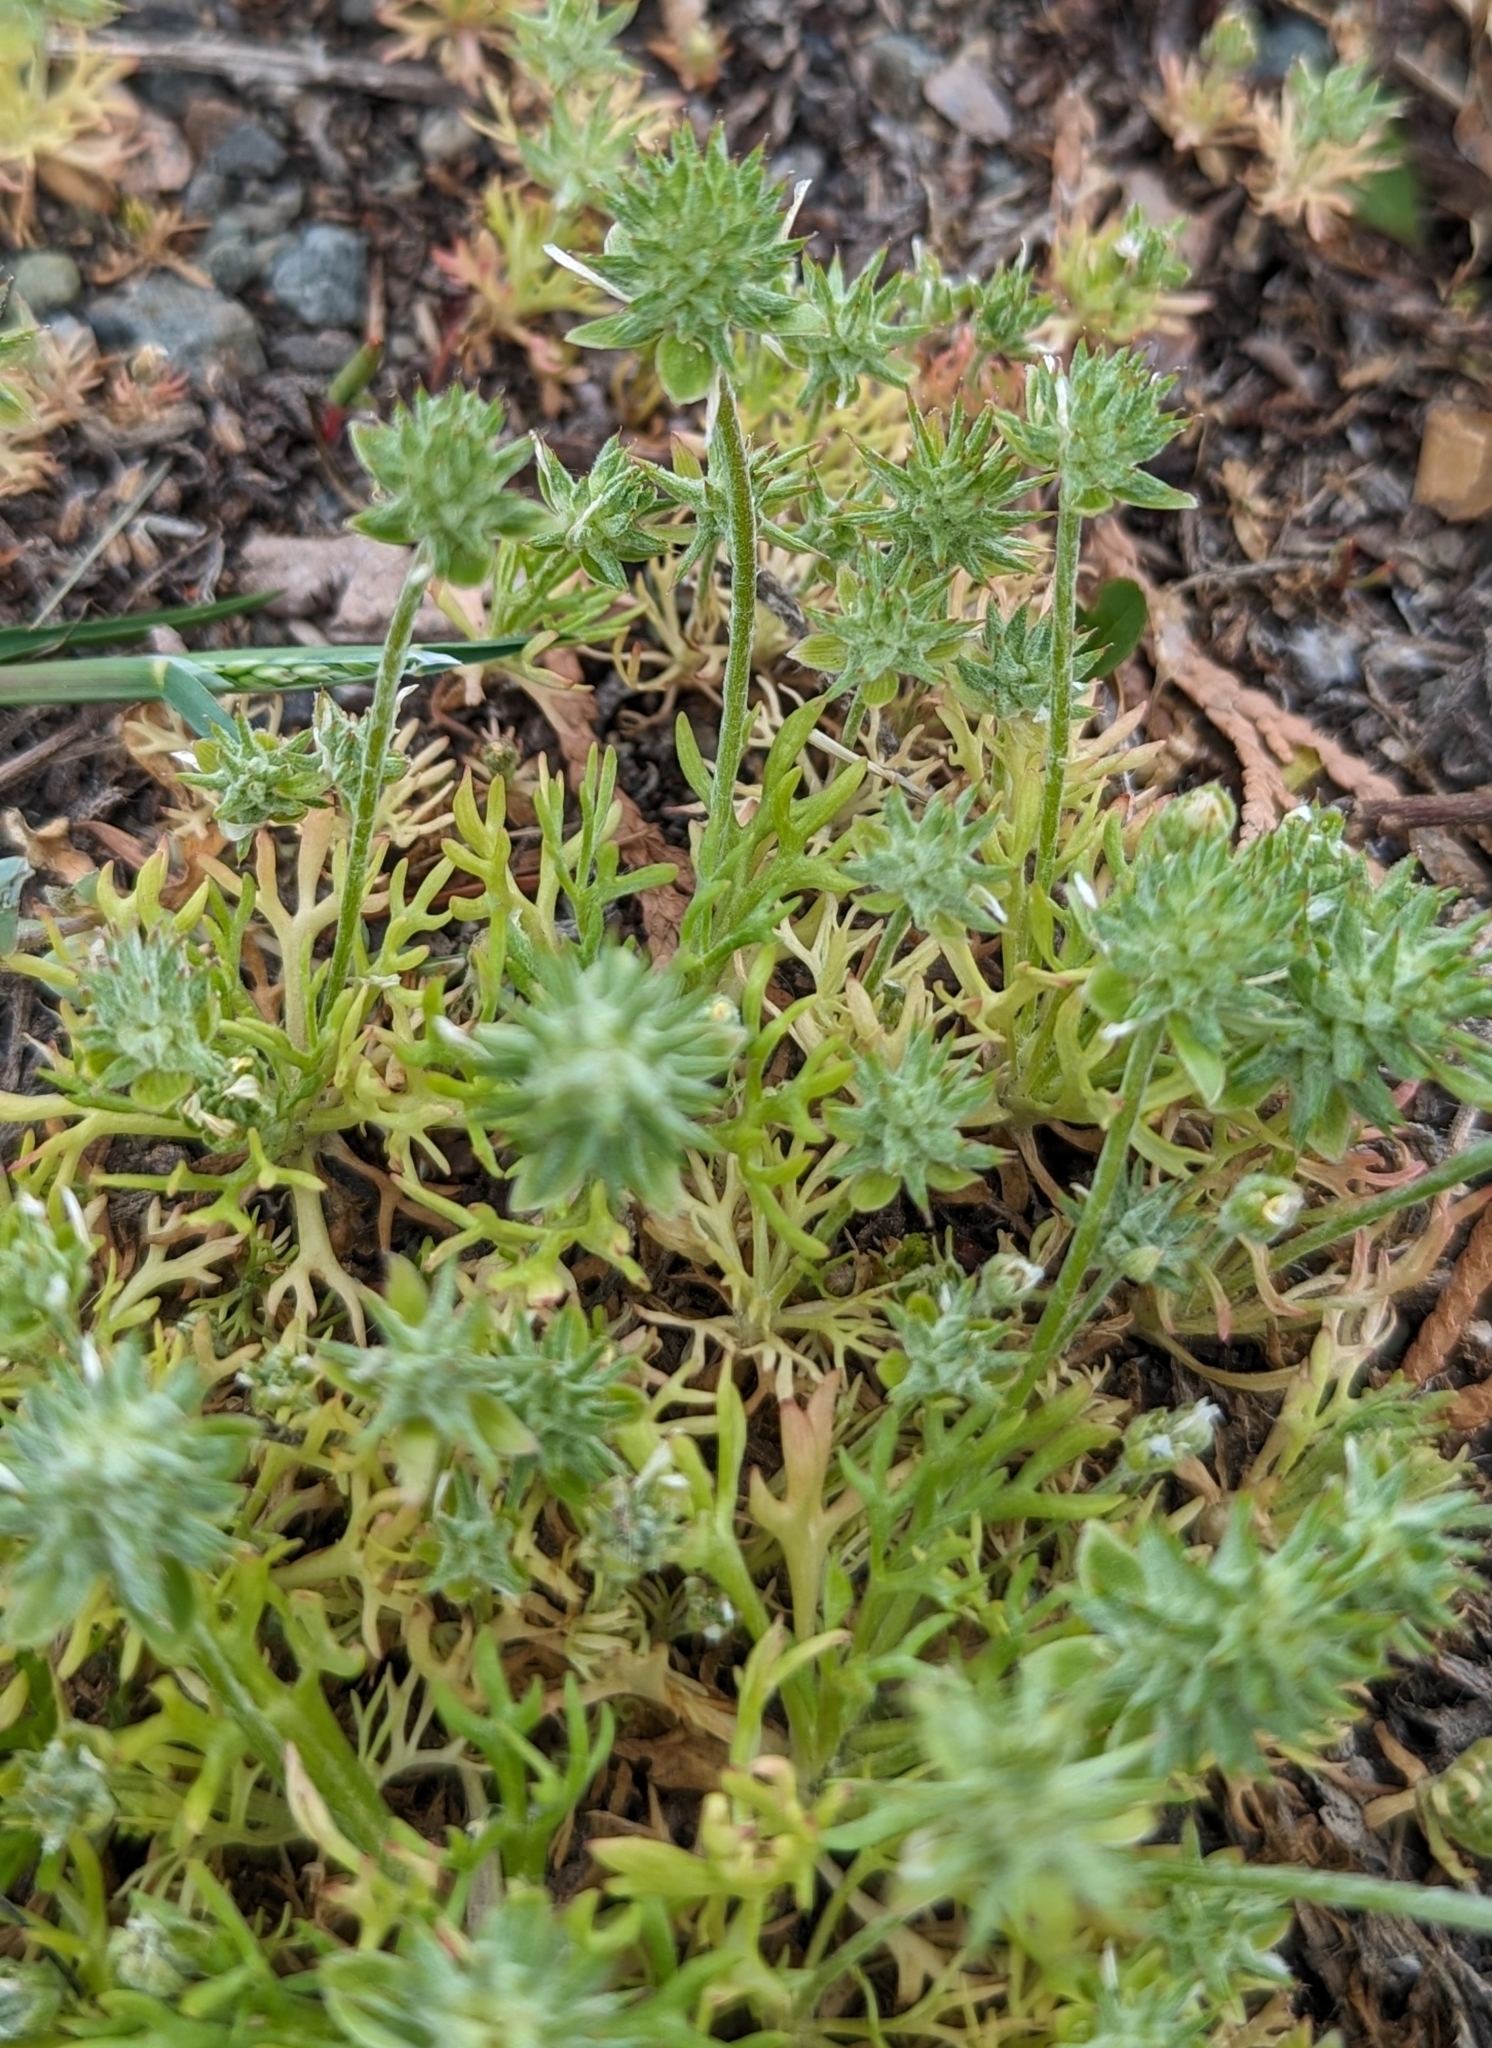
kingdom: Plantae
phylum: Tracheophyta
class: Magnoliopsida
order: Ranunculales
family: Ranunculaceae
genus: Ceratocephala
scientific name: Ceratocephala orthoceras
